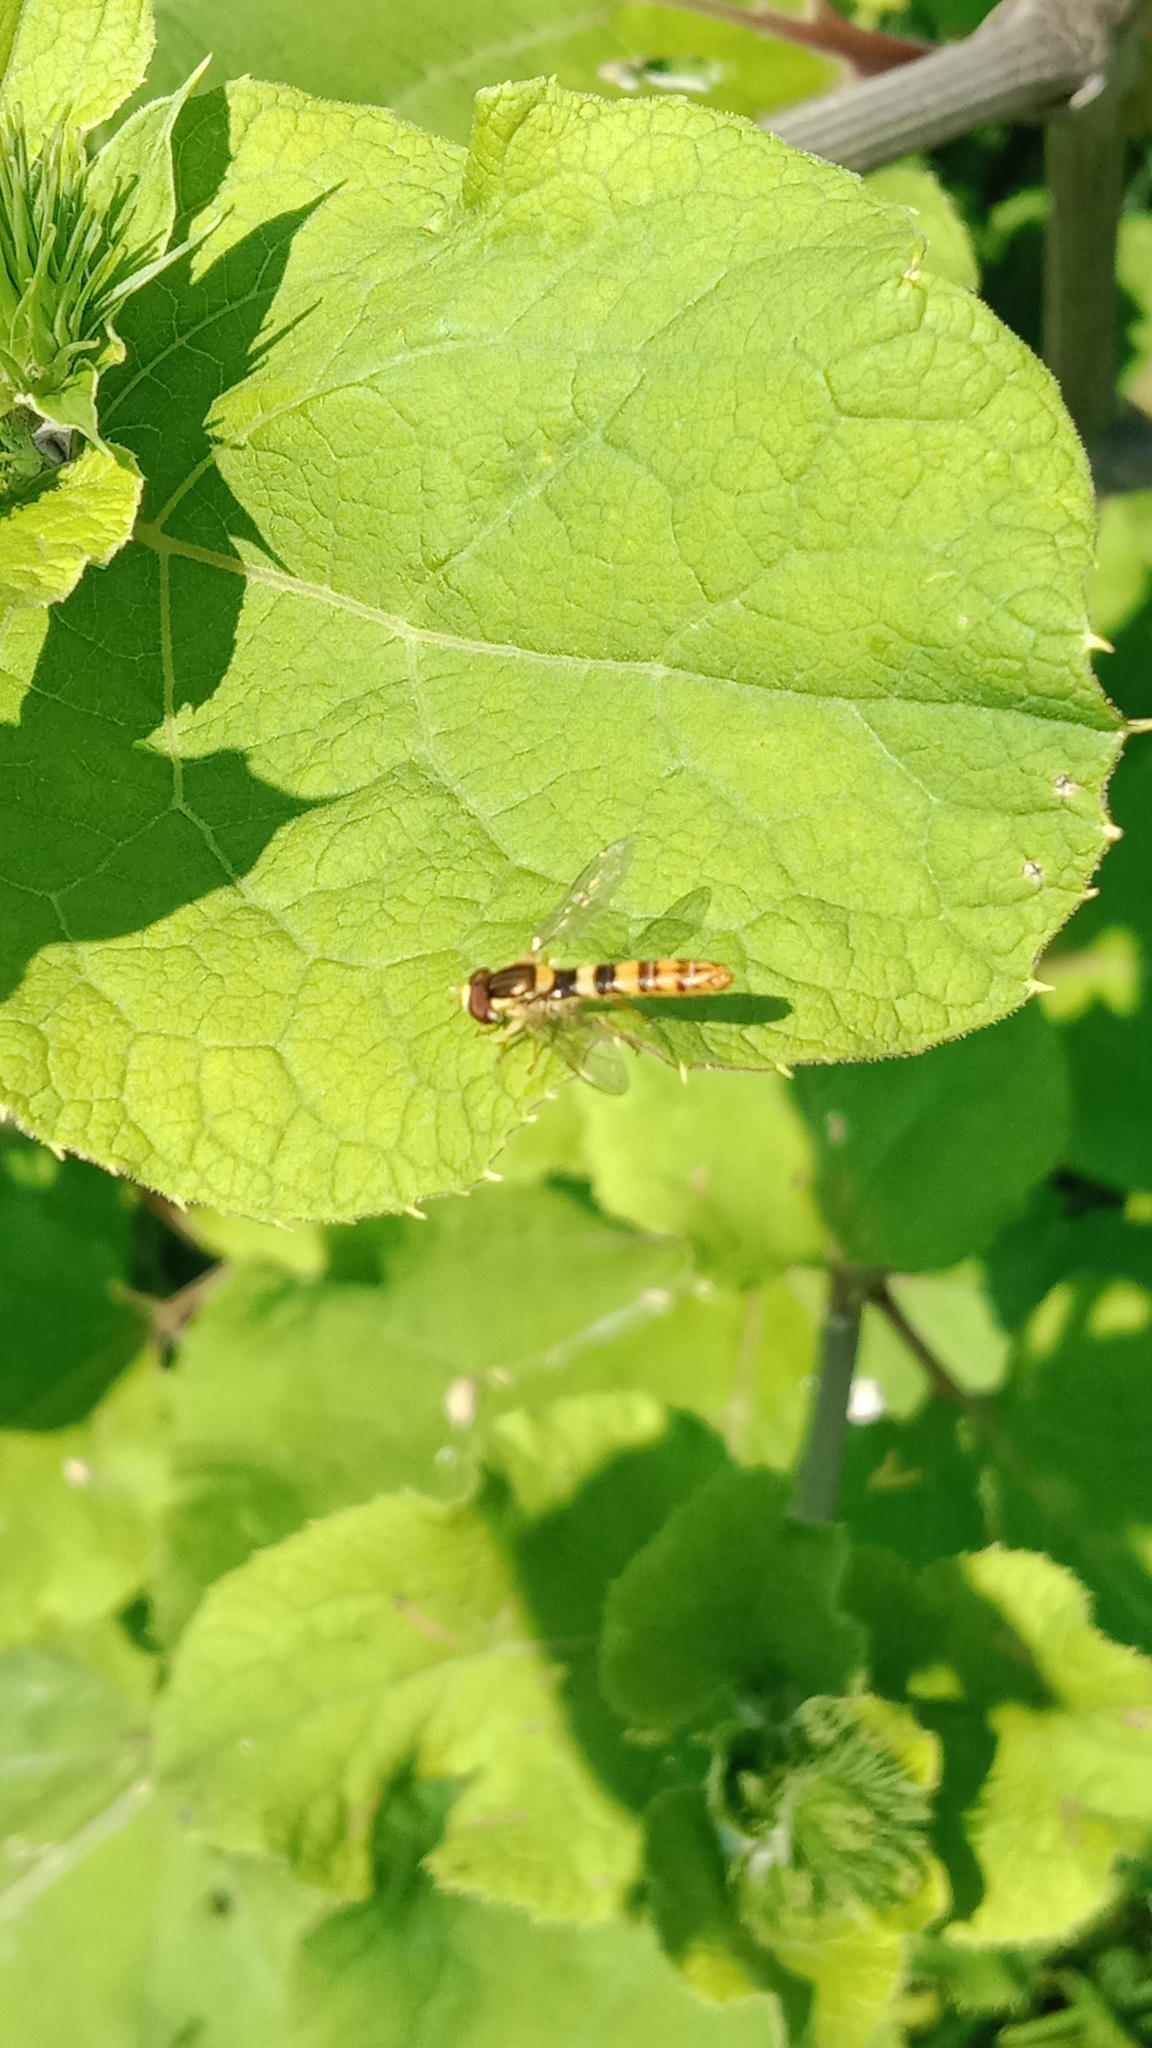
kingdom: Animalia
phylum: Arthropoda
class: Insecta
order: Diptera
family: Syrphidae
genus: Sphaerophoria
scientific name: Sphaerophoria scripta
